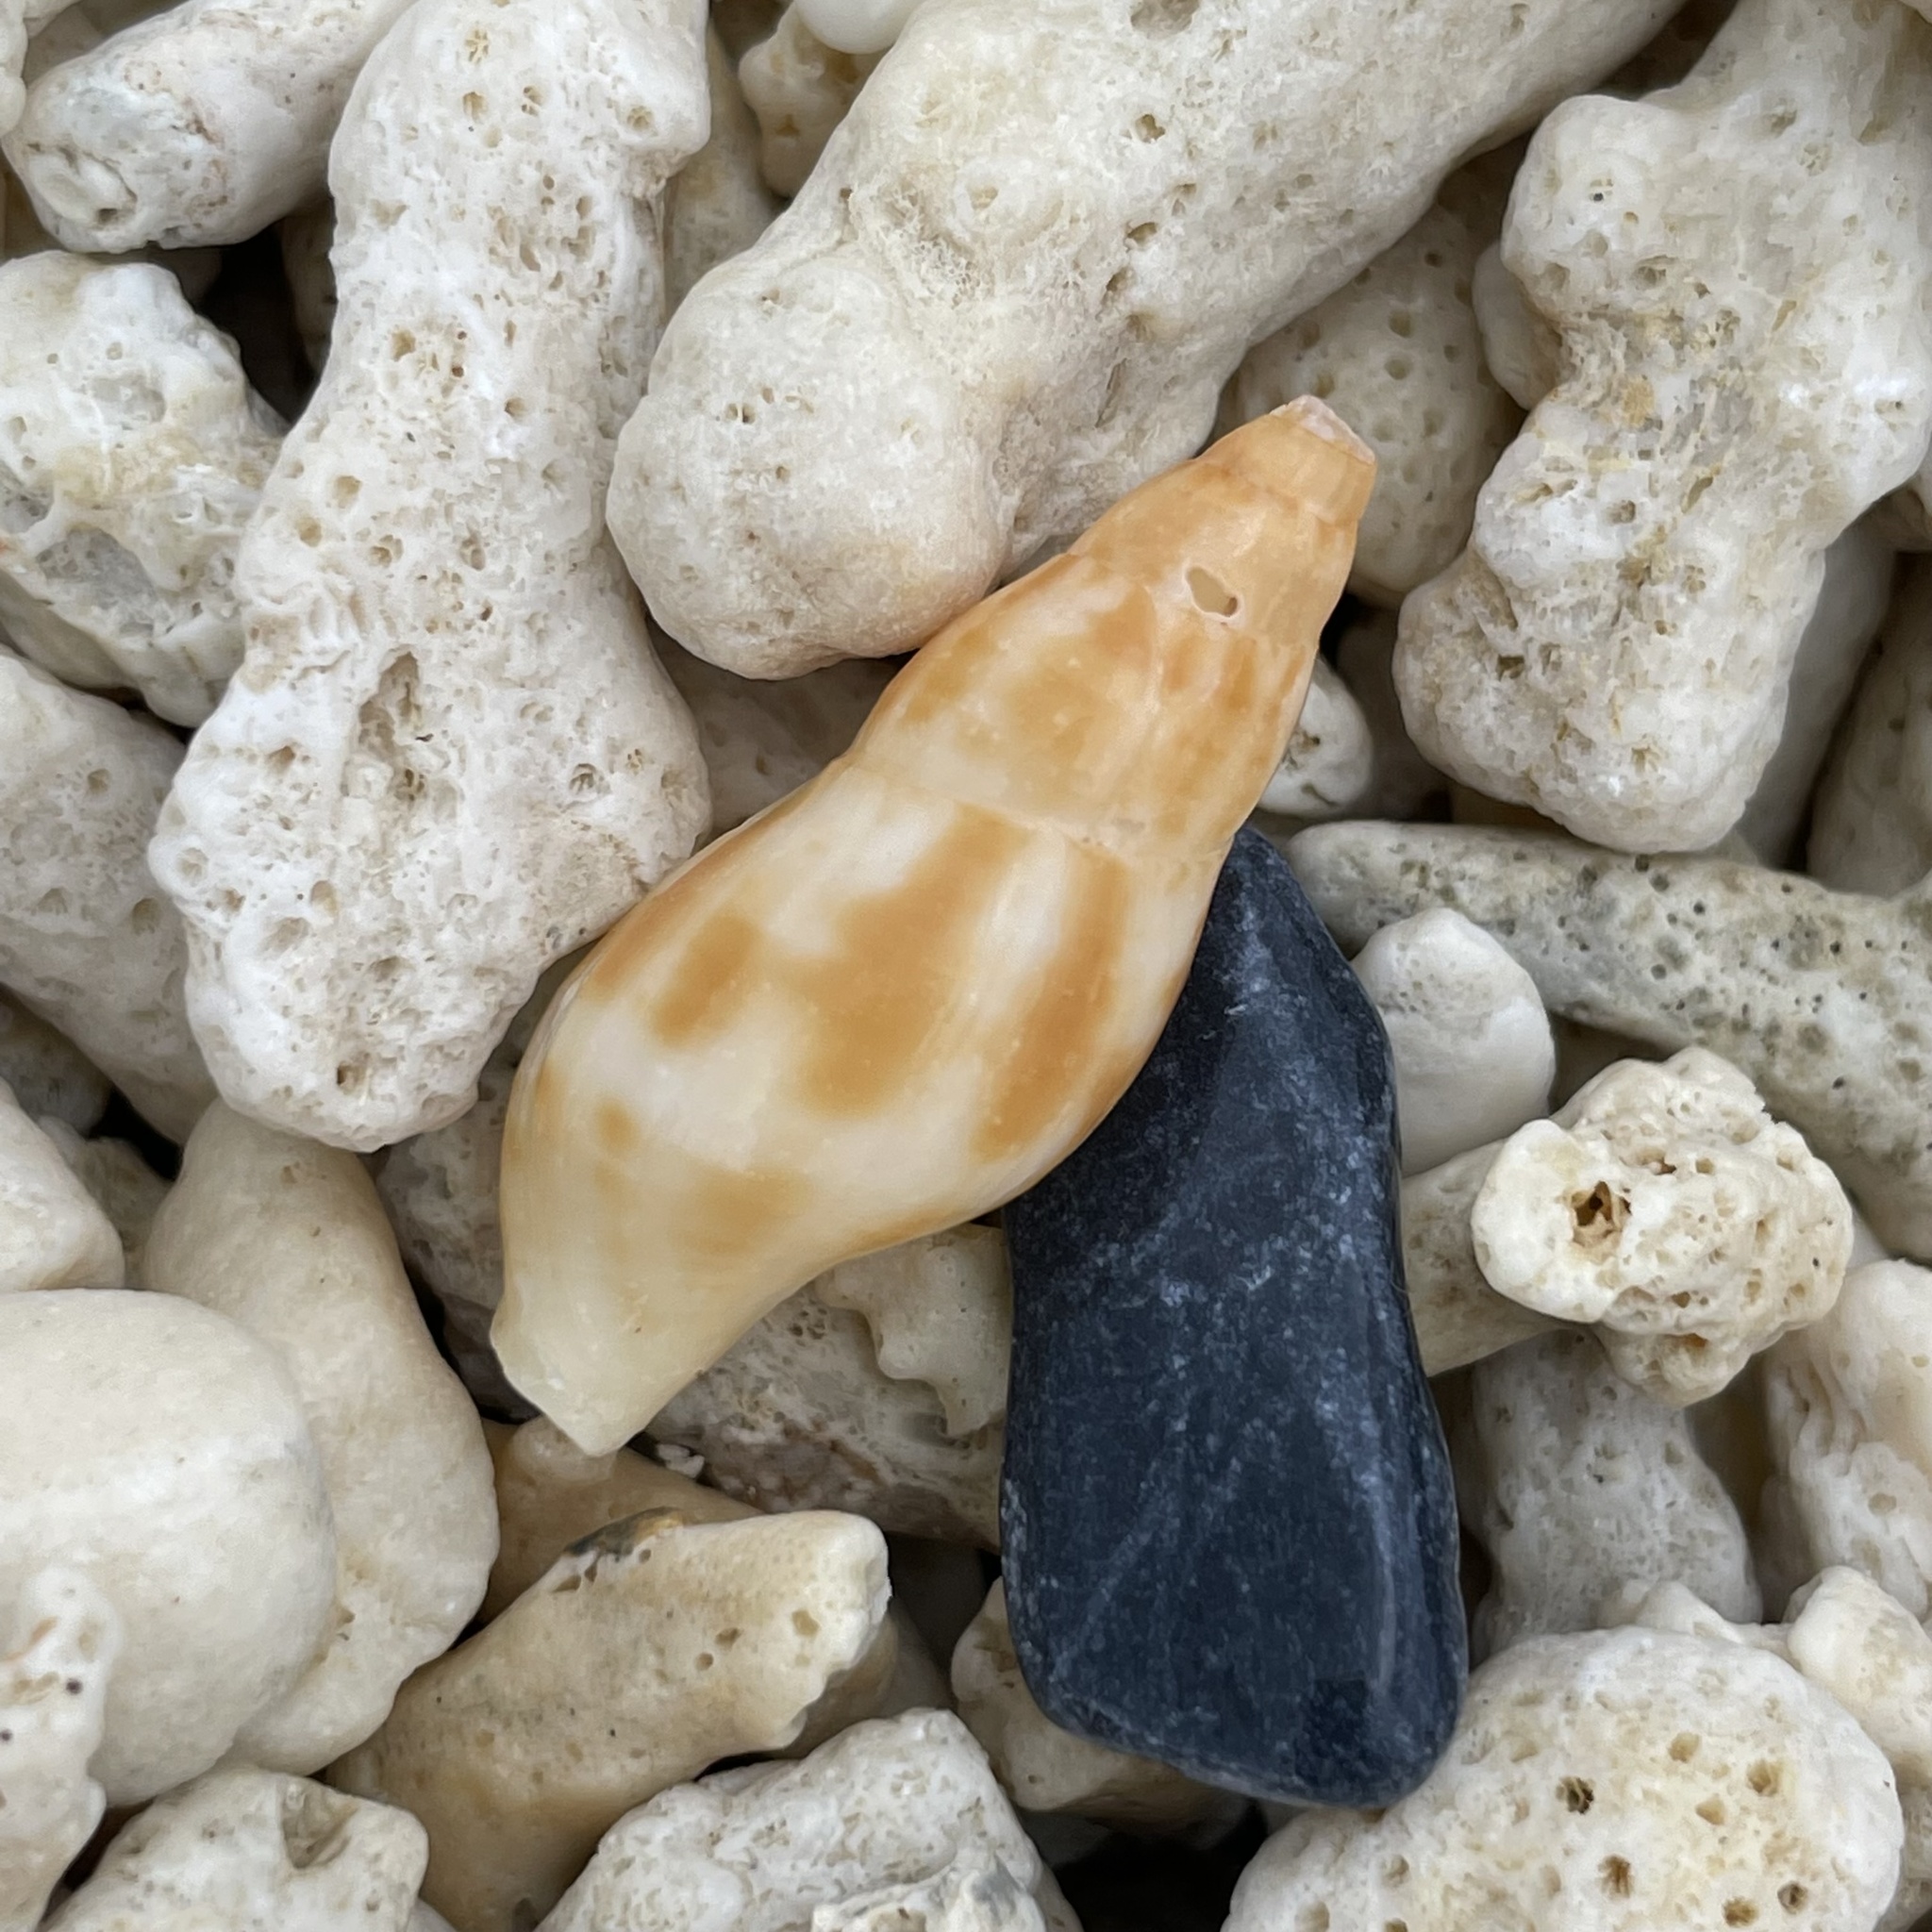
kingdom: Animalia
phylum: Mollusca
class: Gastropoda
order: Neogastropoda
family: Pisaniidae
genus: Pisania
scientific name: Pisania ignea
